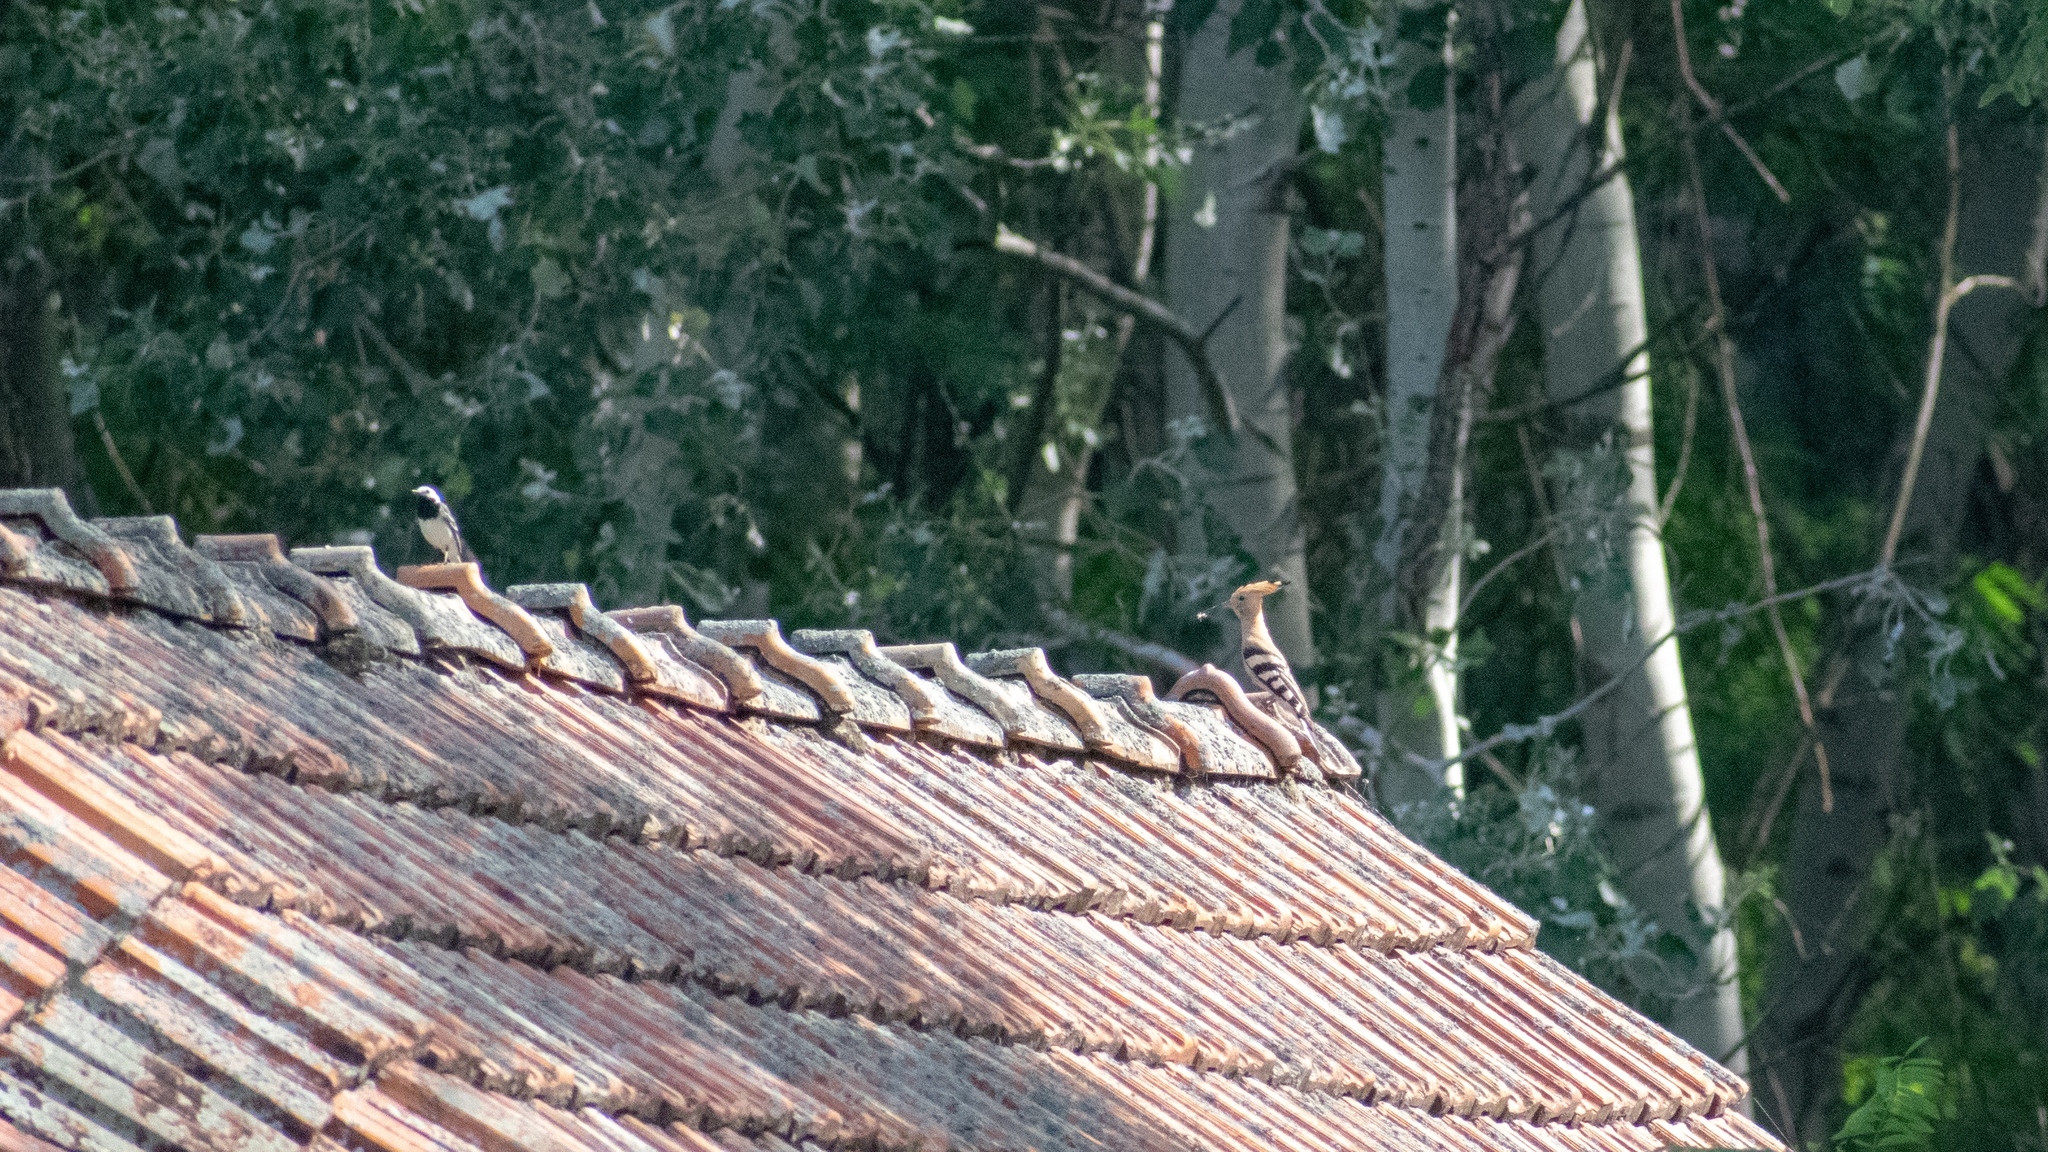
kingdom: Animalia
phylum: Chordata
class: Aves
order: Bucerotiformes
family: Upupidae
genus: Upupa
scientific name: Upupa epops
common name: Eurasian hoopoe
